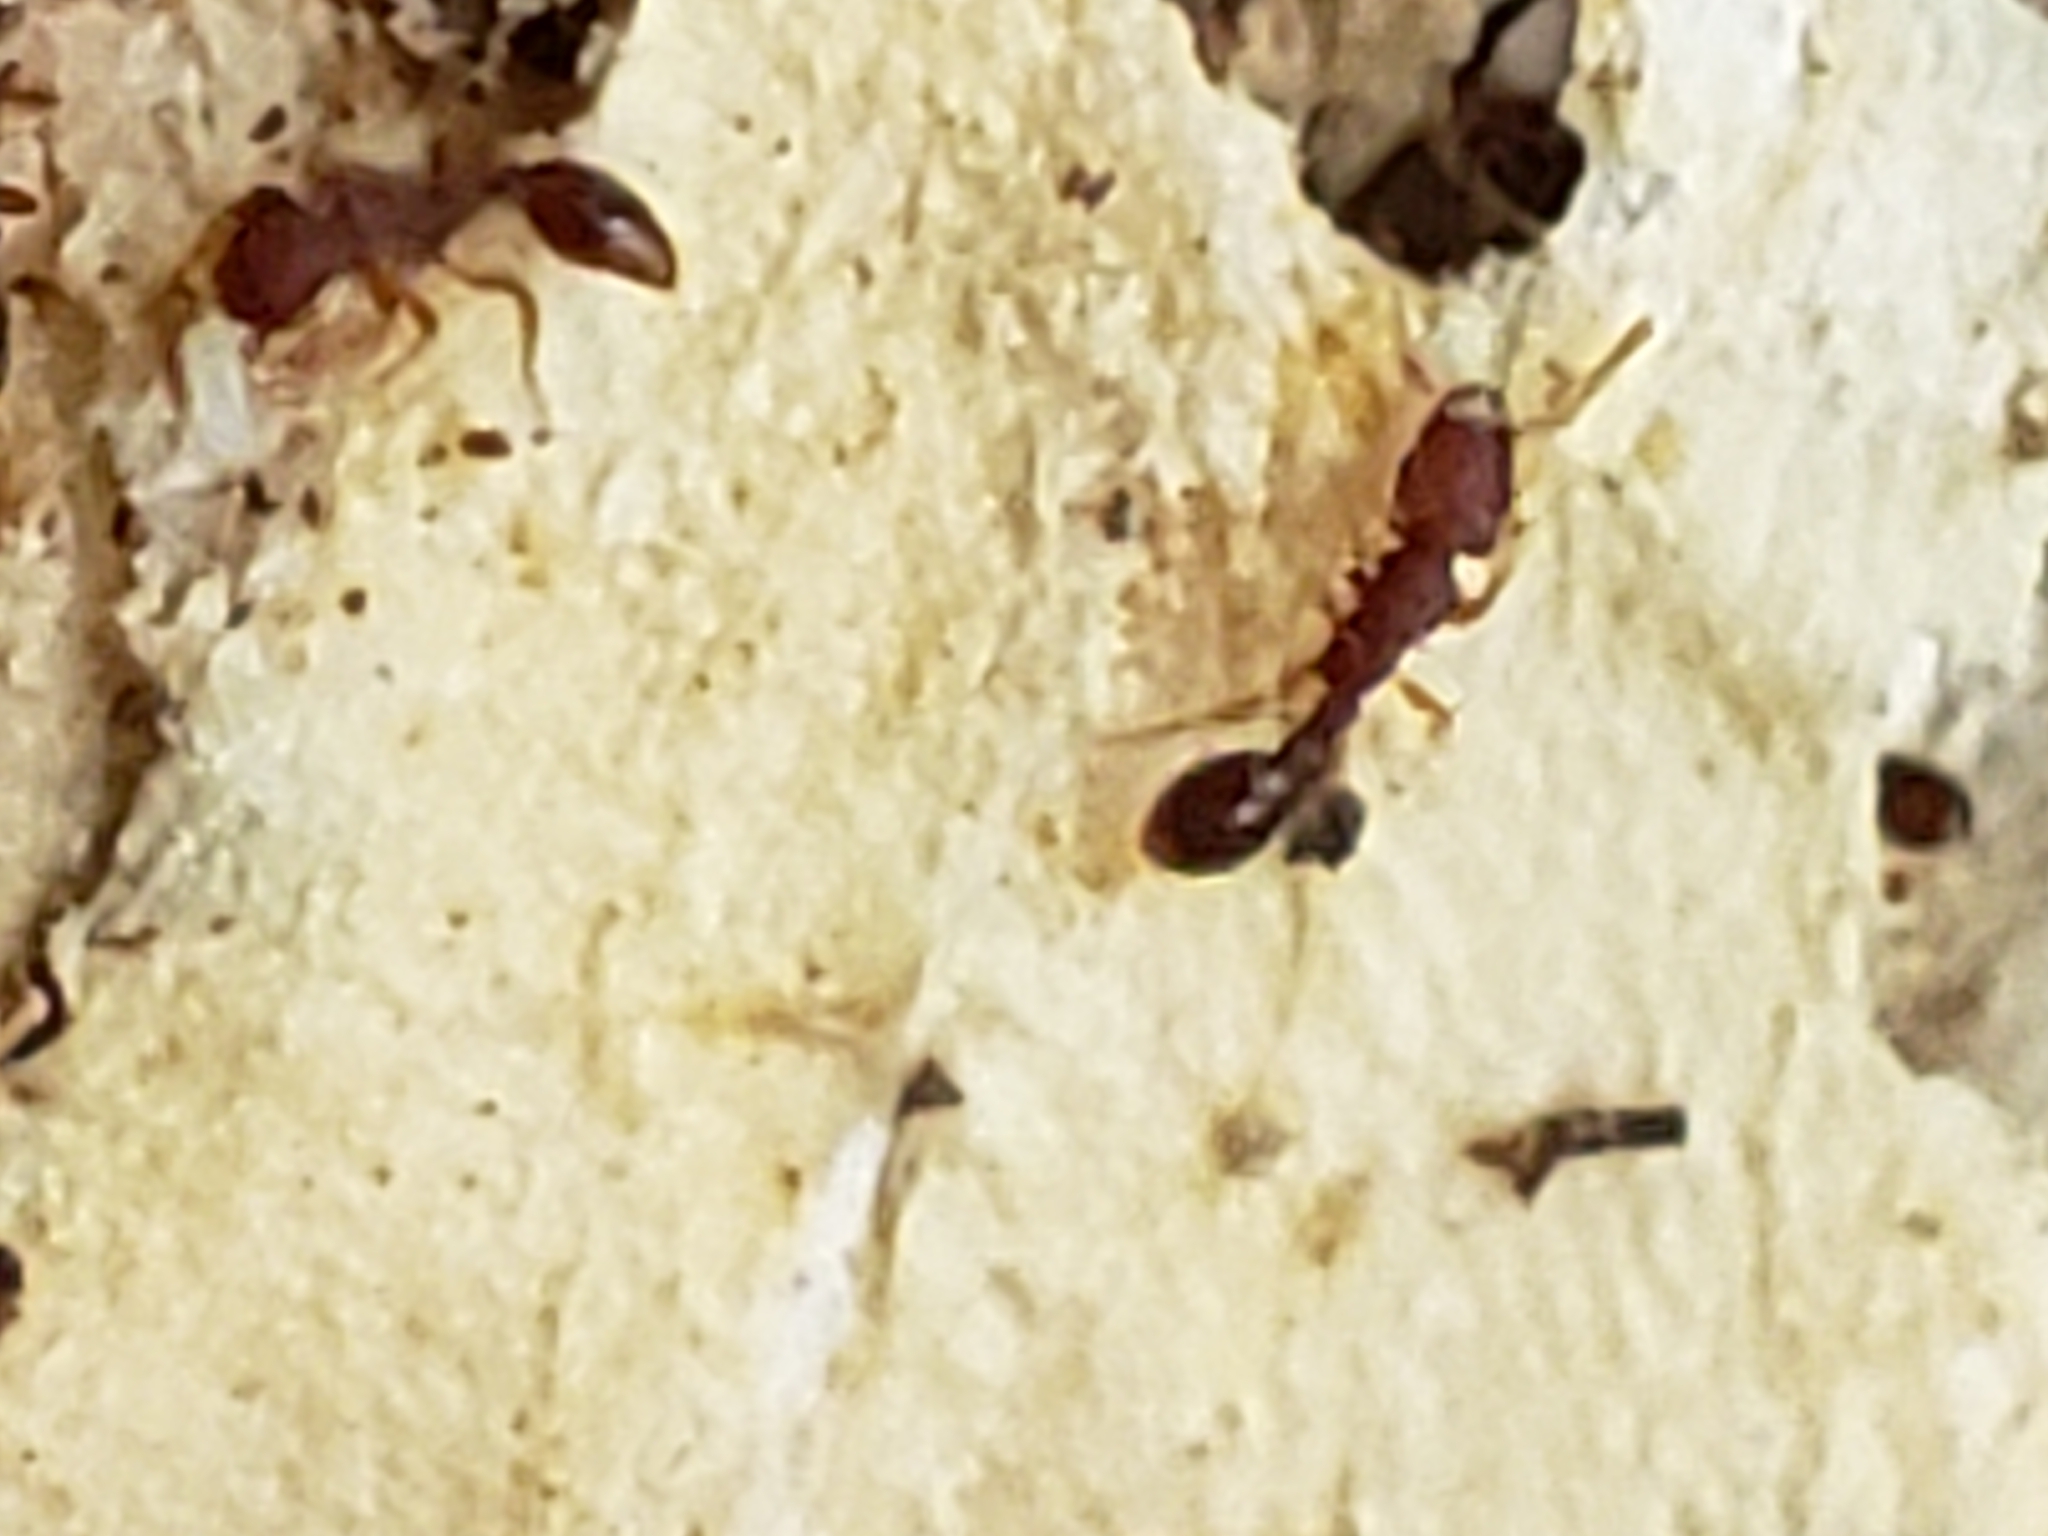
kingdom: Animalia
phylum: Arthropoda
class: Insecta
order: Hymenoptera
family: Formicidae
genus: Vollenhovia
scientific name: Vollenhovia emeryi
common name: Ant
